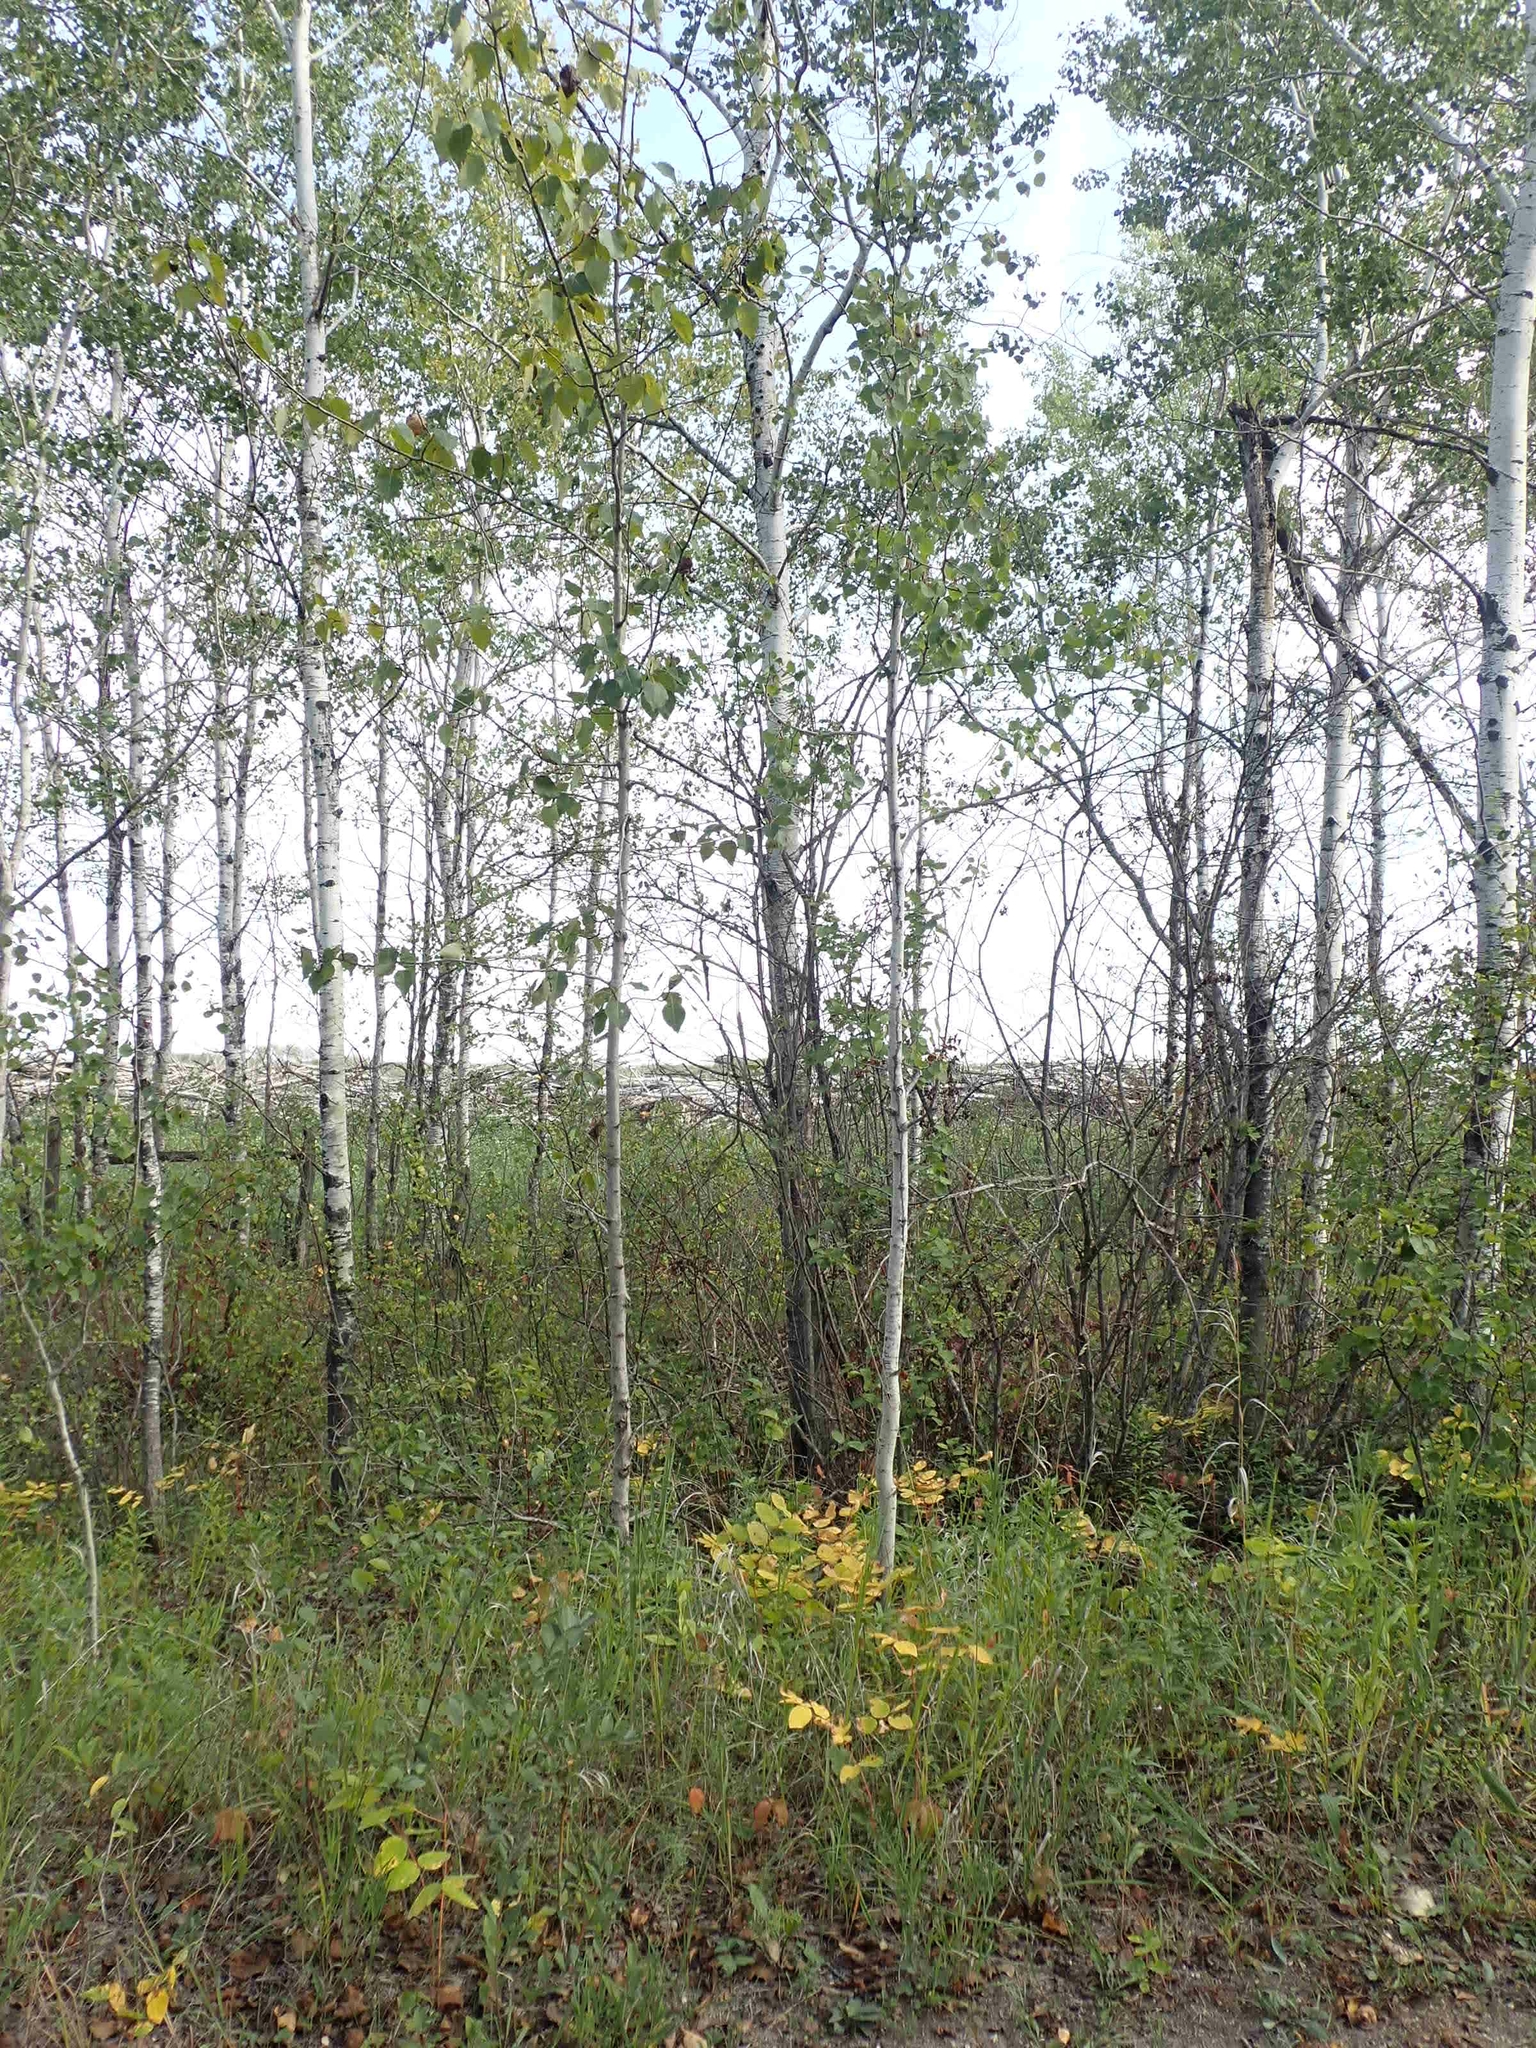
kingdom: Plantae
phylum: Tracheophyta
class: Magnoliopsida
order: Malpighiales
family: Salicaceae
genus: Populus
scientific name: Populus balsamifera
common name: Balsam poplar
